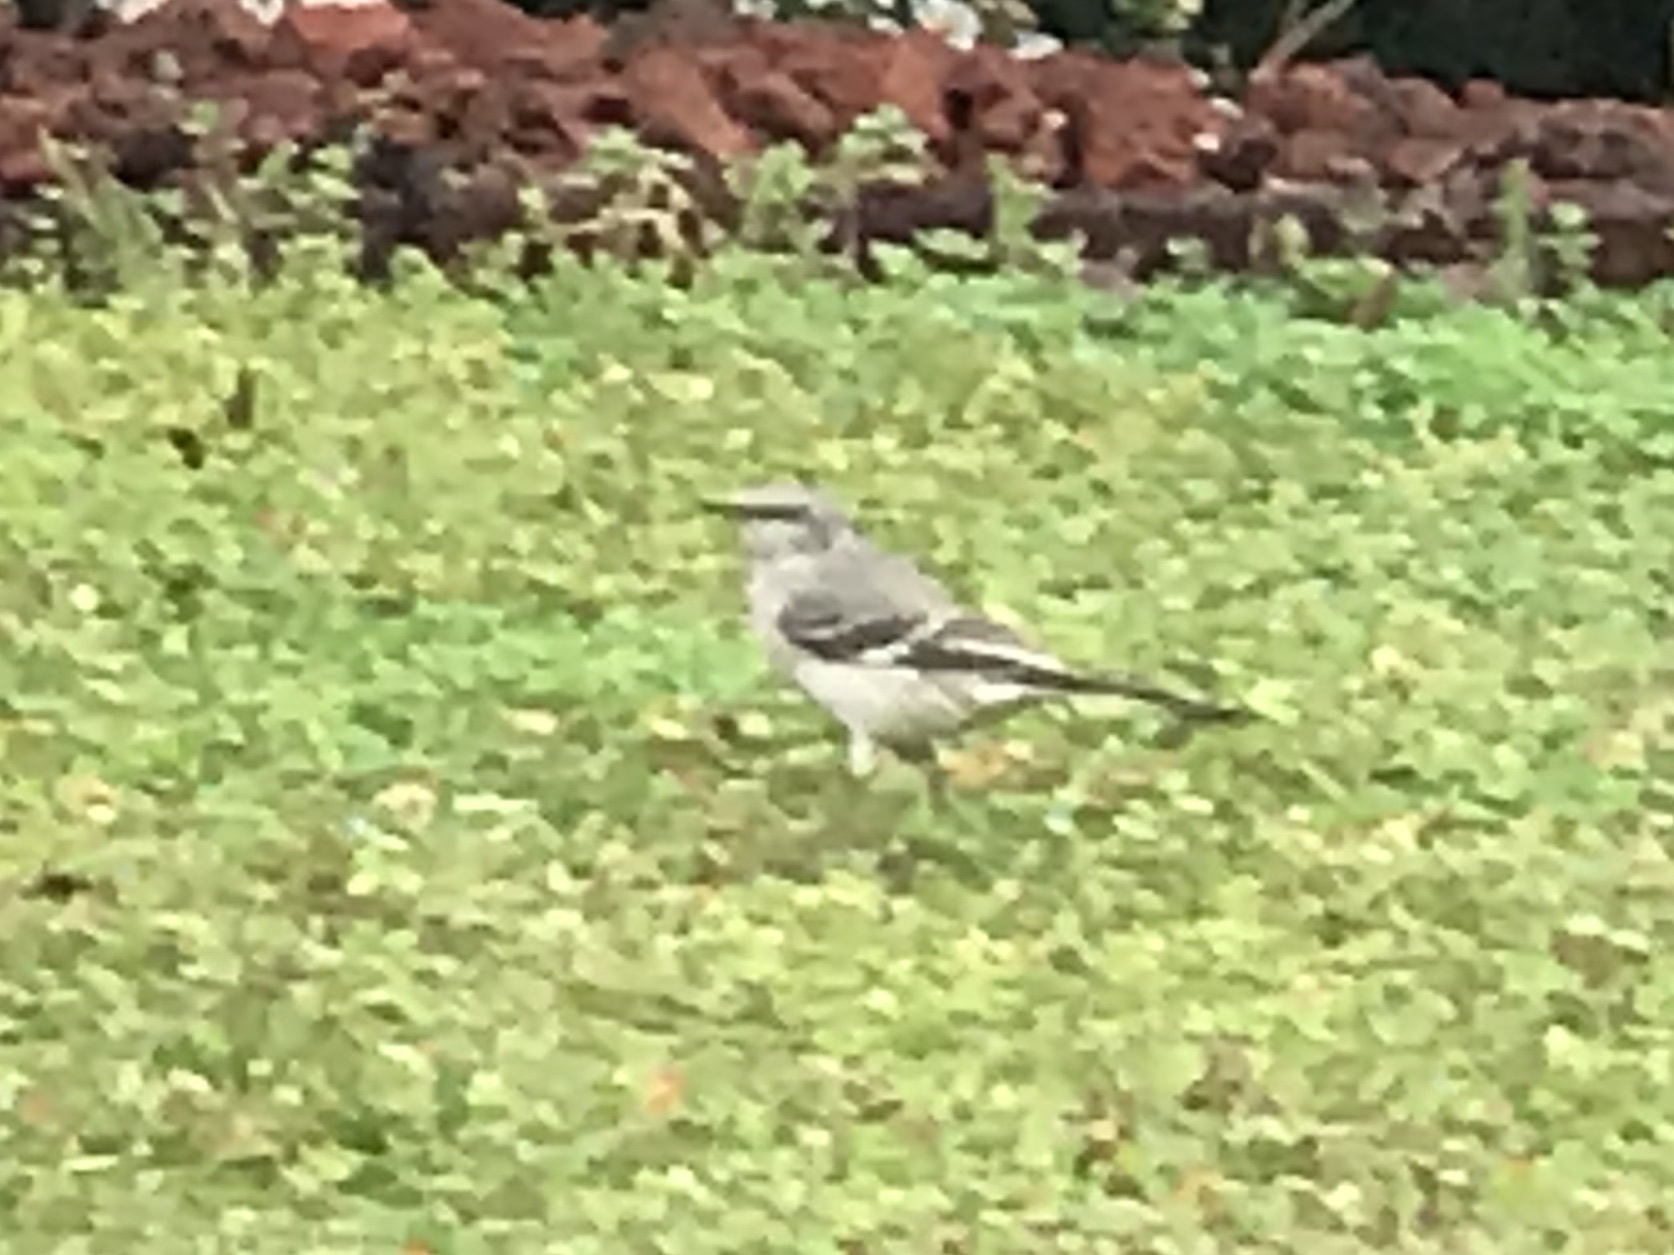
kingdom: Animalia
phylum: Chordata
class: Aves
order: Passeriformes
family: Mimidae
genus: Mimus
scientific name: Mimus polyglottos
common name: Northern mockingbird
